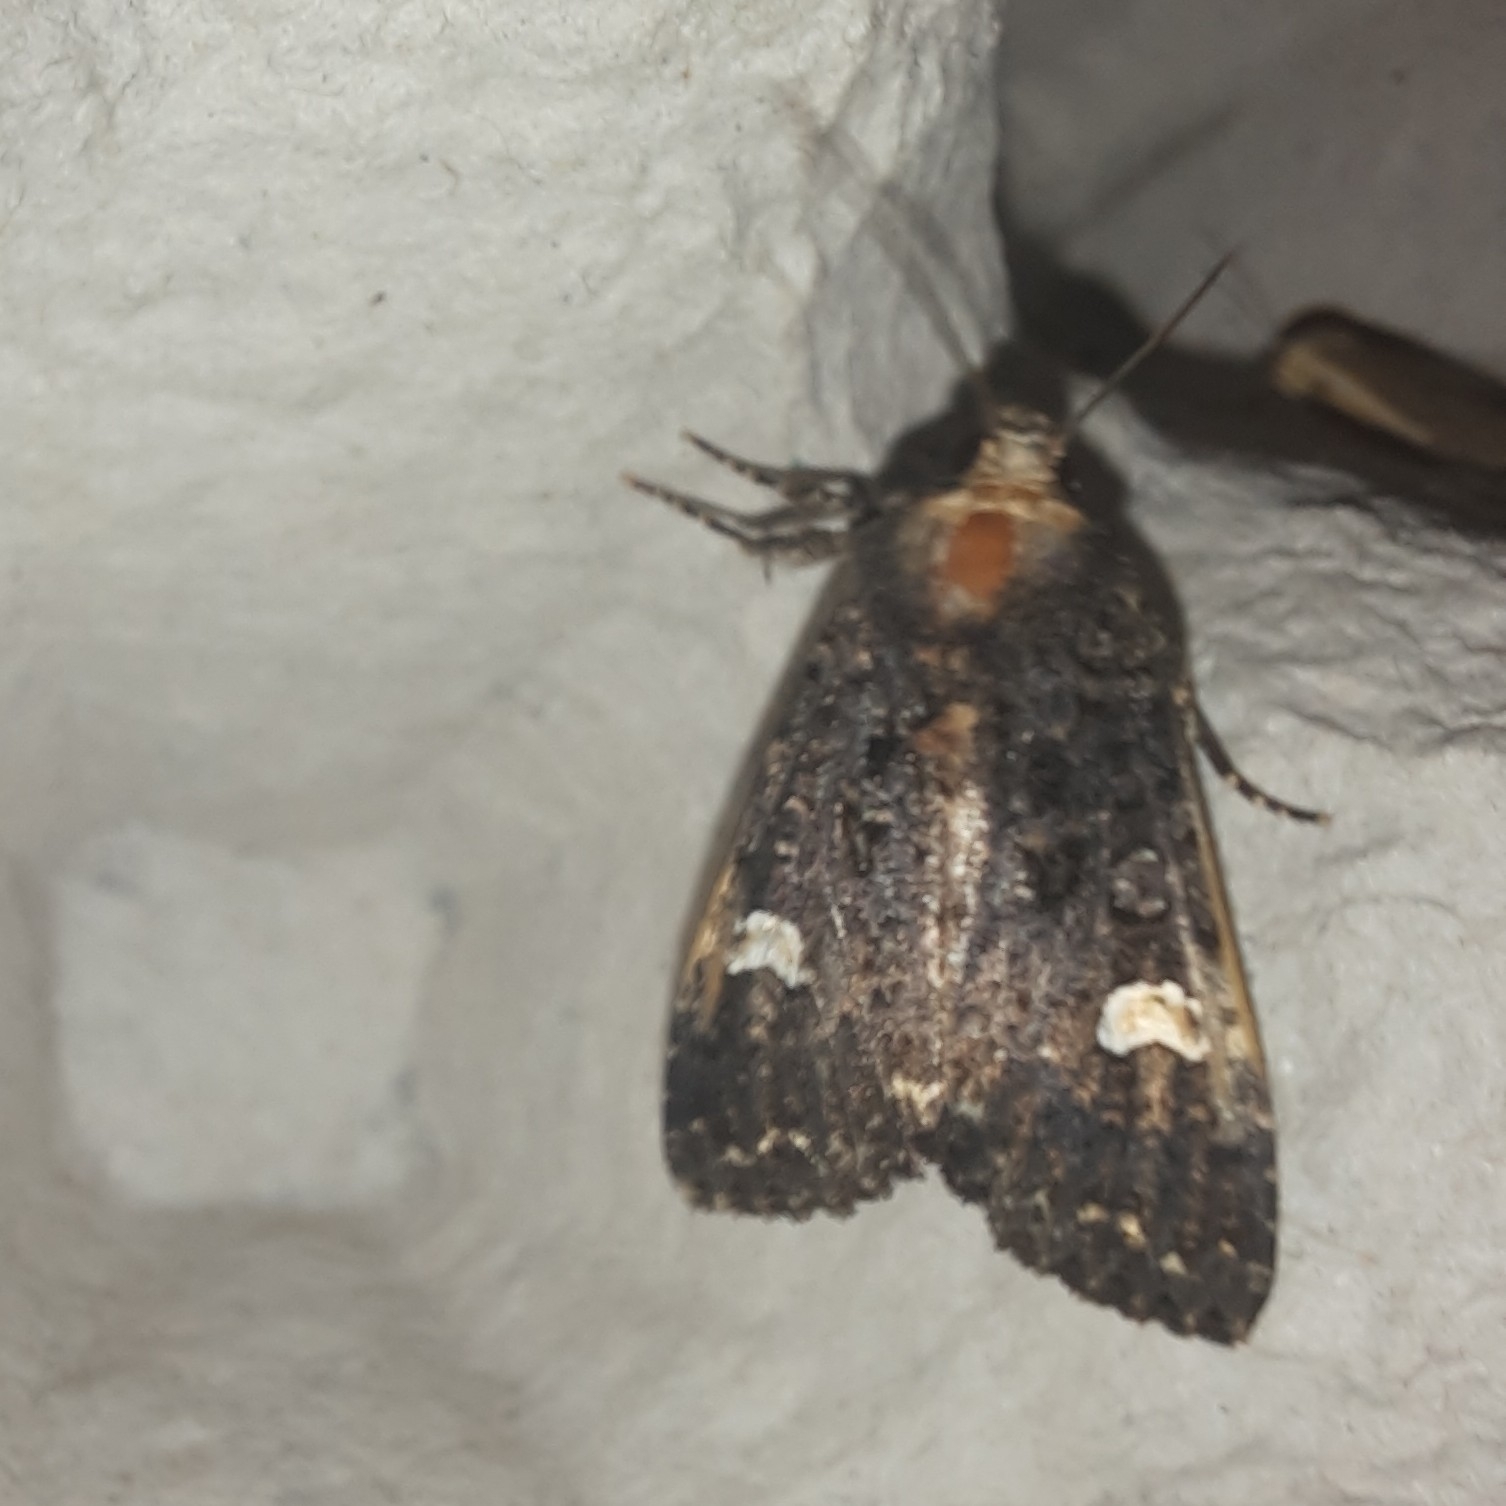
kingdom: Animalia
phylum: Arthropoda
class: Insecta
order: Lepidoptera
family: Noctuidae
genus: Melanchra
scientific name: Melanchra persicariae
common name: Dot moth
